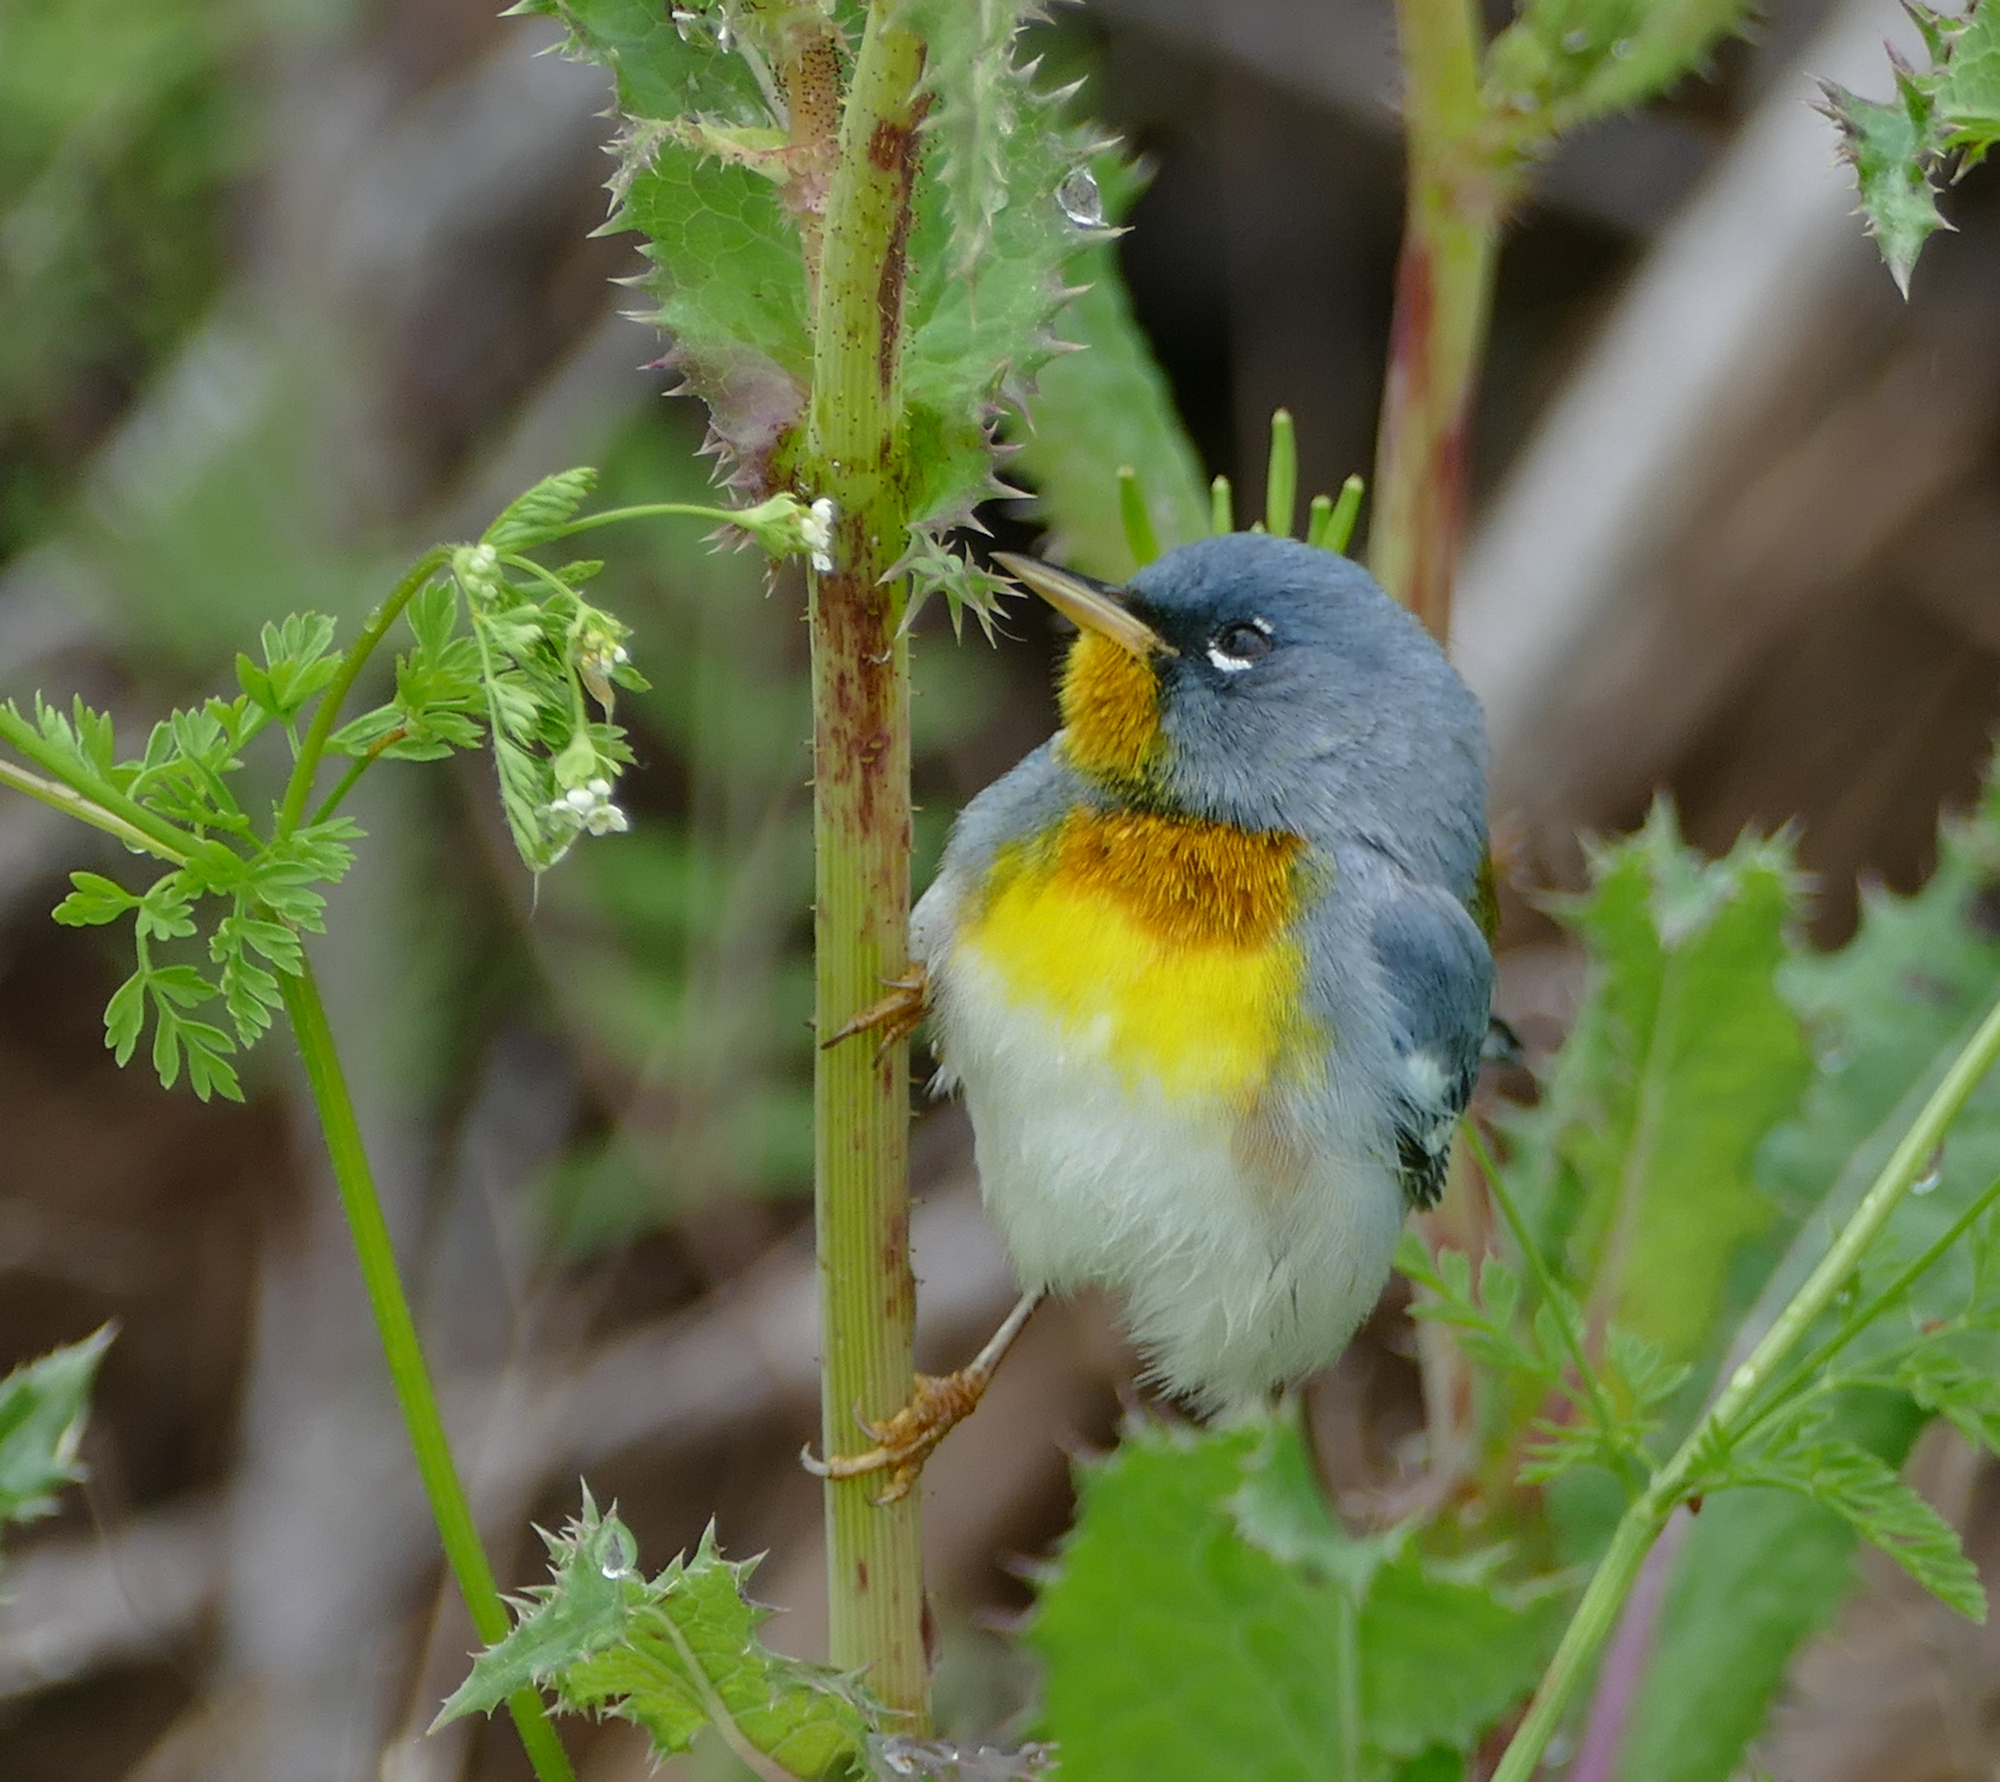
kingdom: Animalia
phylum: Chordata
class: Aves
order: Passeriformes
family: Parulidae
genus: Setophaga
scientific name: Setophaga americana
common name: Northern parula
